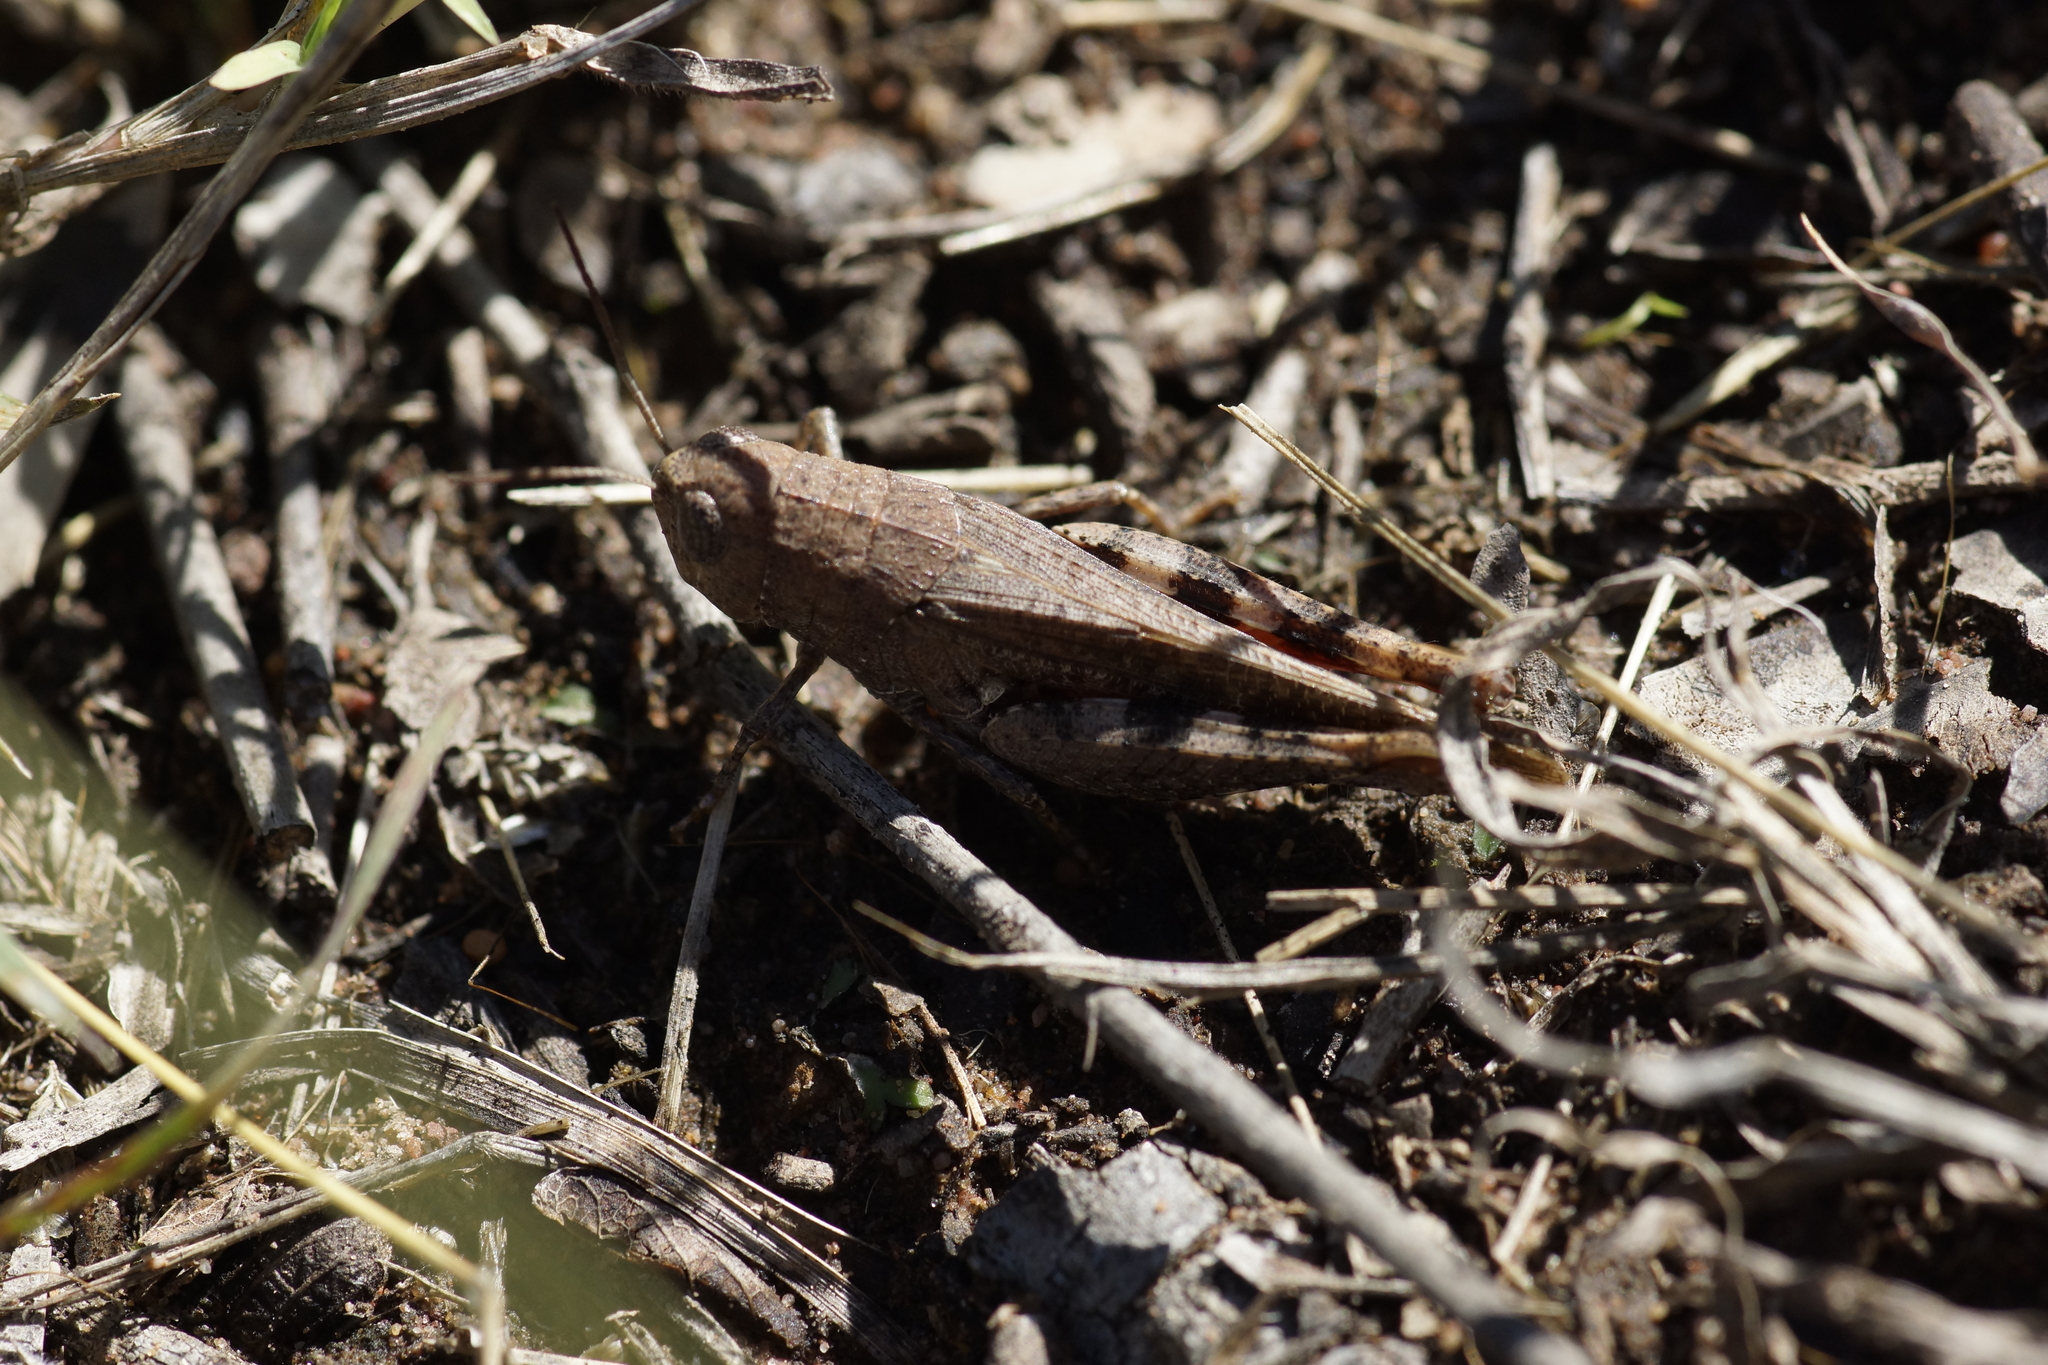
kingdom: Animalia
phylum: Arthropoda
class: Insecta
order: Orthoptera
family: Acrididae
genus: Xanterriaria
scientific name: Xanterriaria mediocris
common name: Mediocre grasshopper
